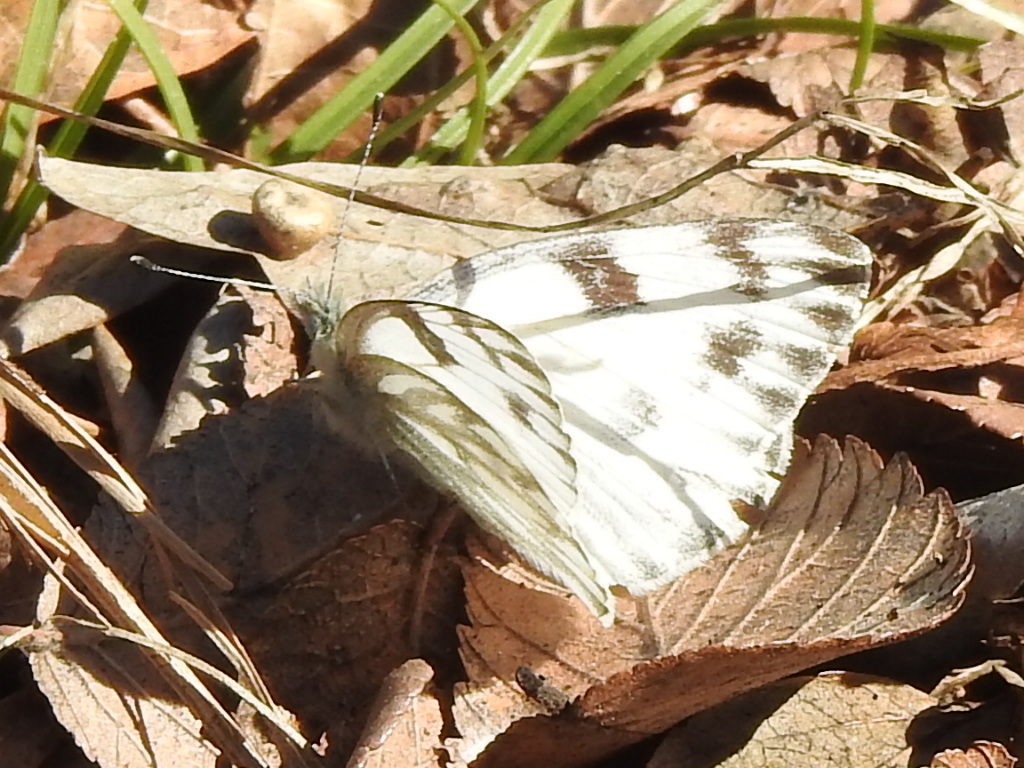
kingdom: Animalia
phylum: Arthropoda
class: Insecta
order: Lepidoptera
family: Pieridae
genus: Pontia
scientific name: Pontia protodice
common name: Checkered white
